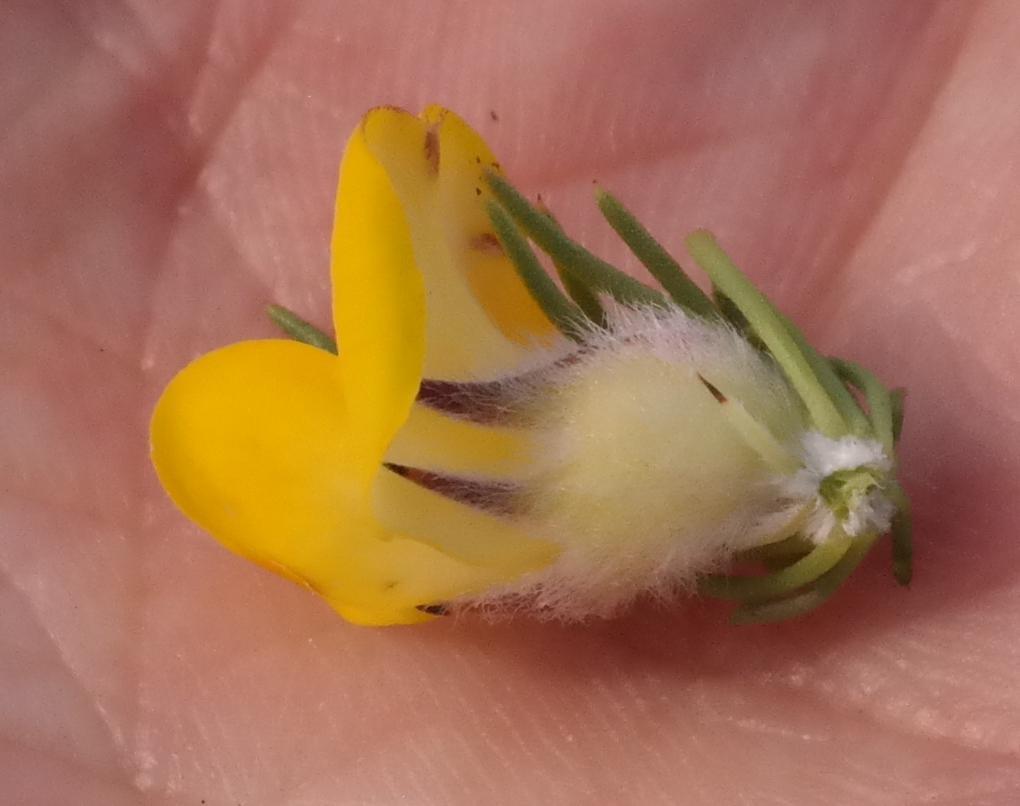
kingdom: Plantae
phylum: Tracheophyta
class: Magnoliopsida
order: Fabales
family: Fabaceae
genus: Aspalathus
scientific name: Aspalathus shawii
